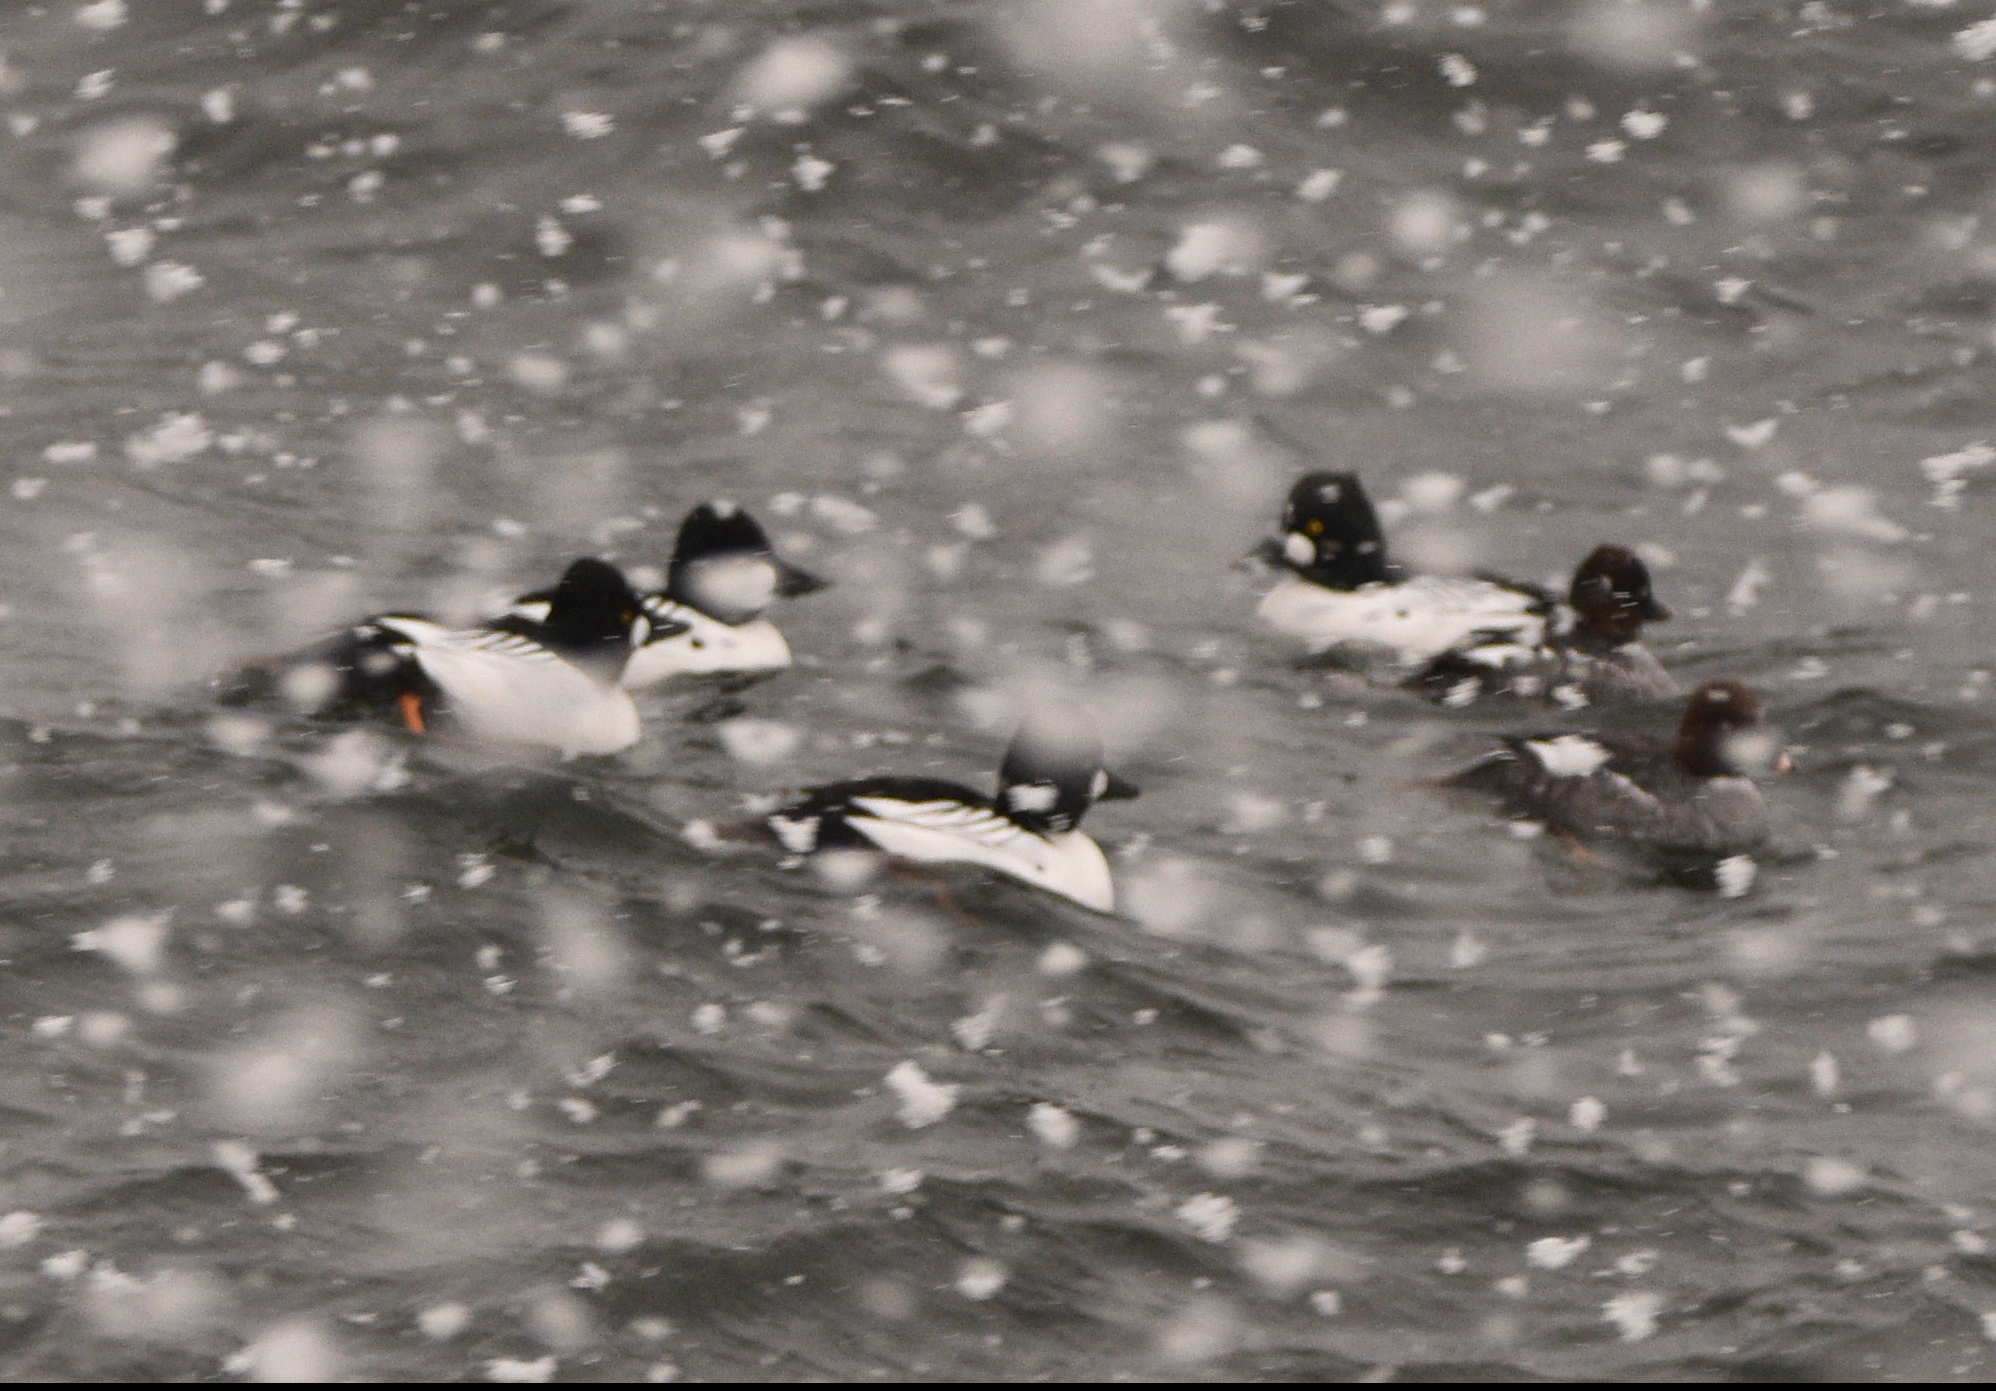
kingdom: Animalia
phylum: Chordata
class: Aves
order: Anseriformes
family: Anatidae
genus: Bucephala
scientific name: Bucephala clangula
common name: Common goldeneye
